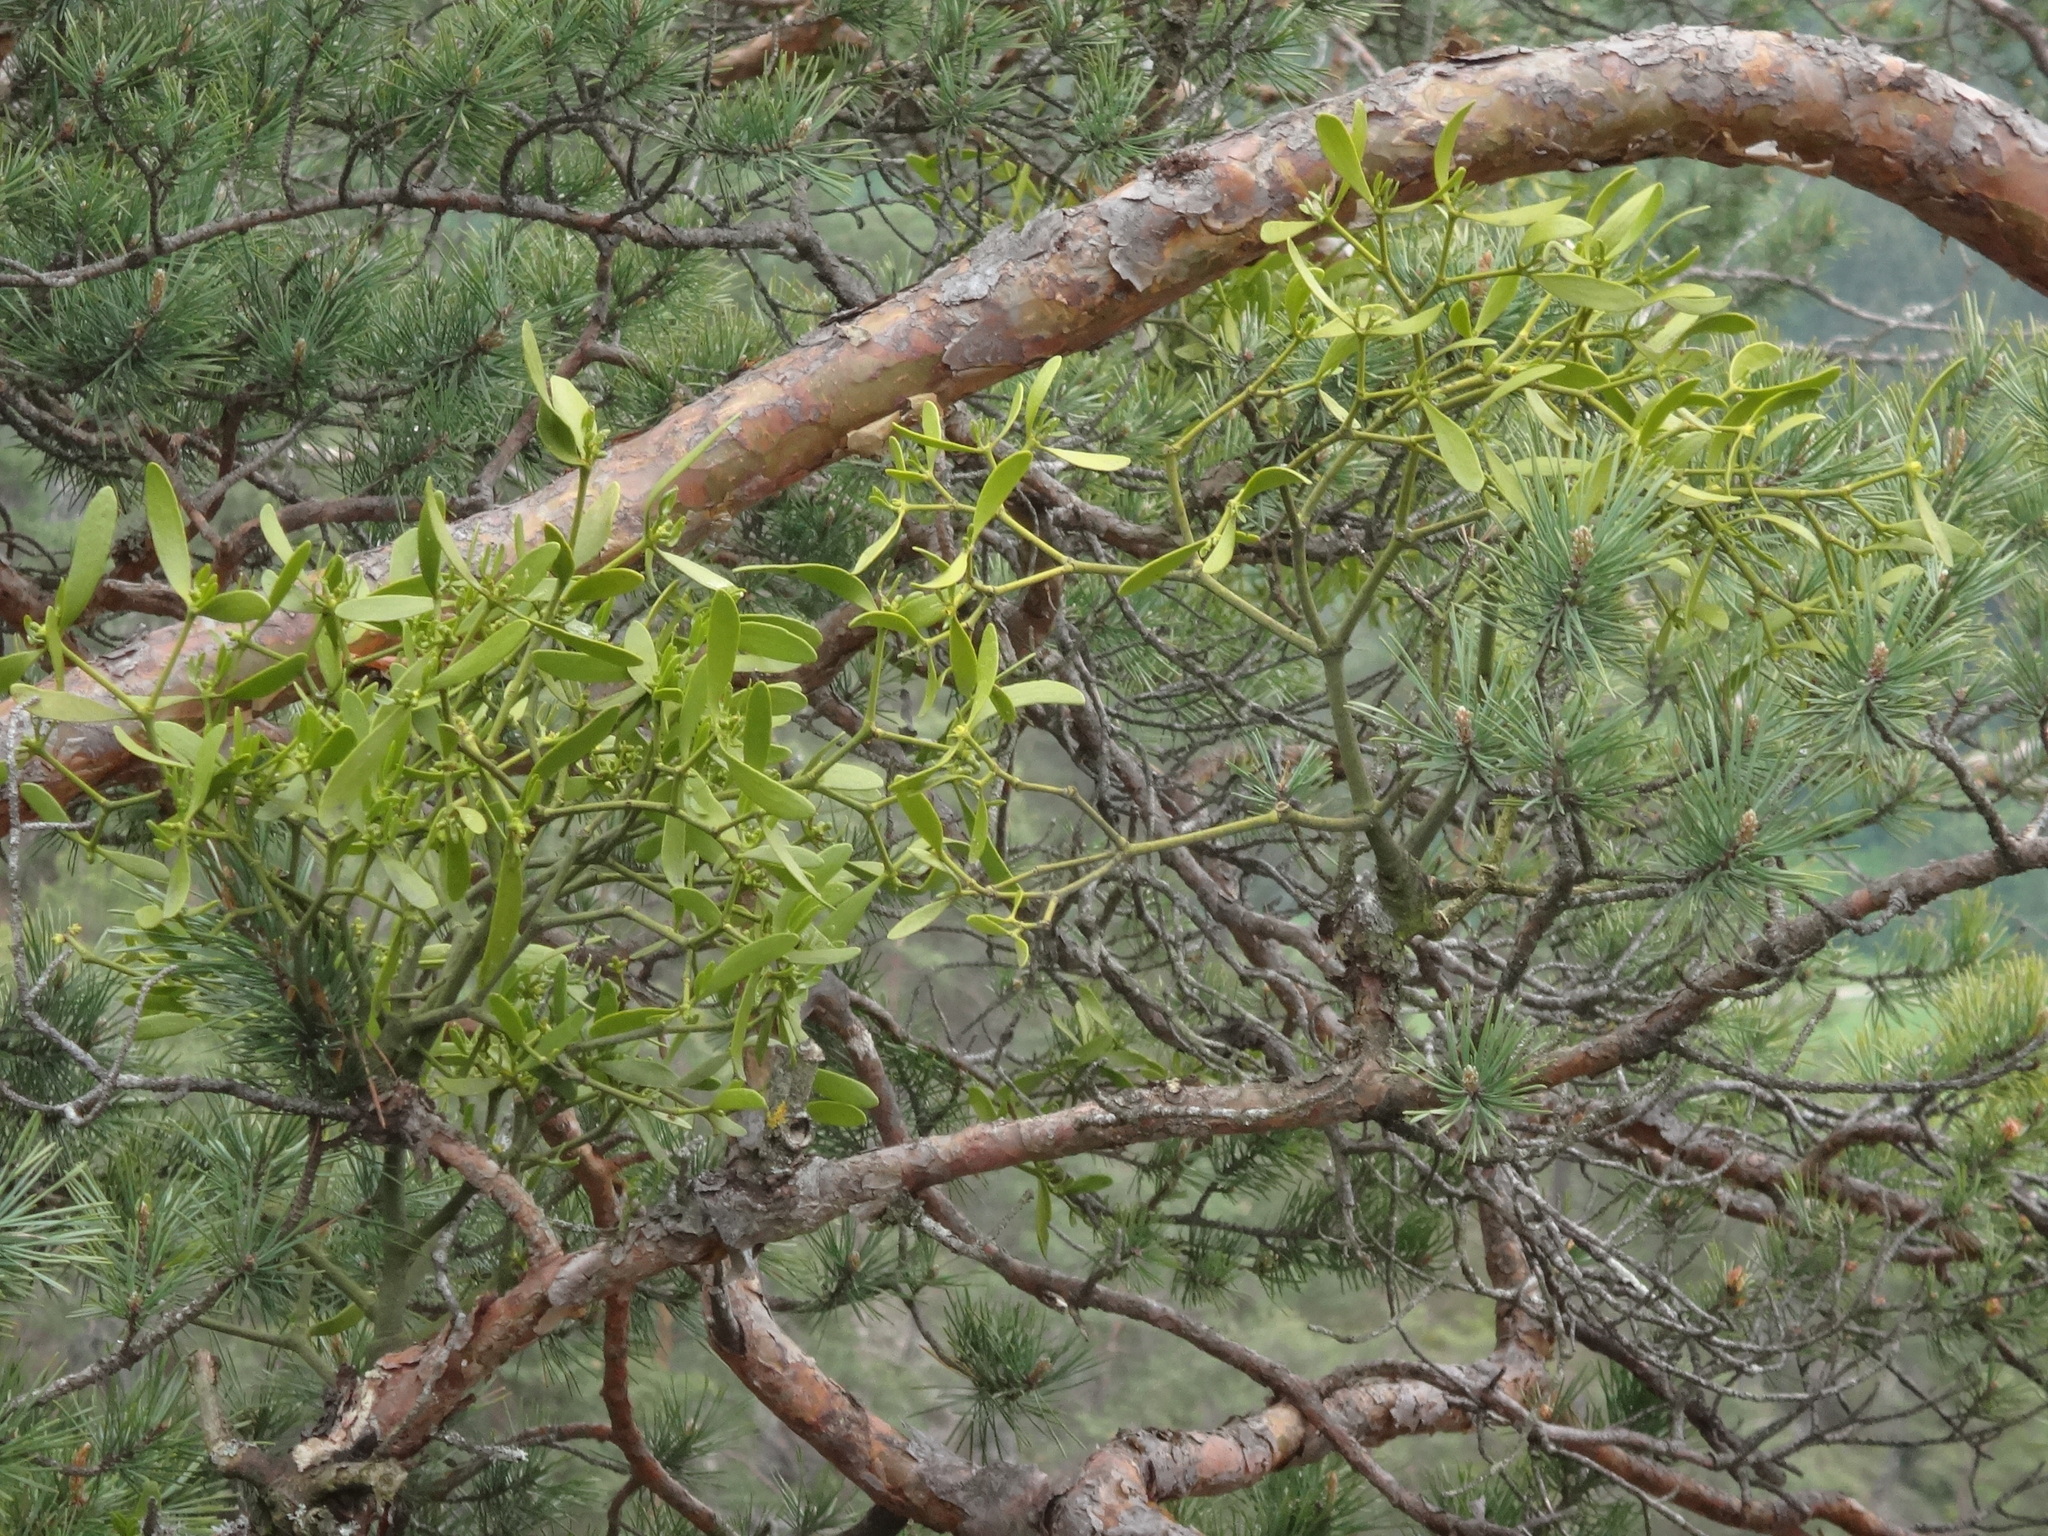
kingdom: Plantae
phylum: Tracheophyta
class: Magnoliopsida
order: Santalales
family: Viscaceae
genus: Viscum
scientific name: Viscum laxum
